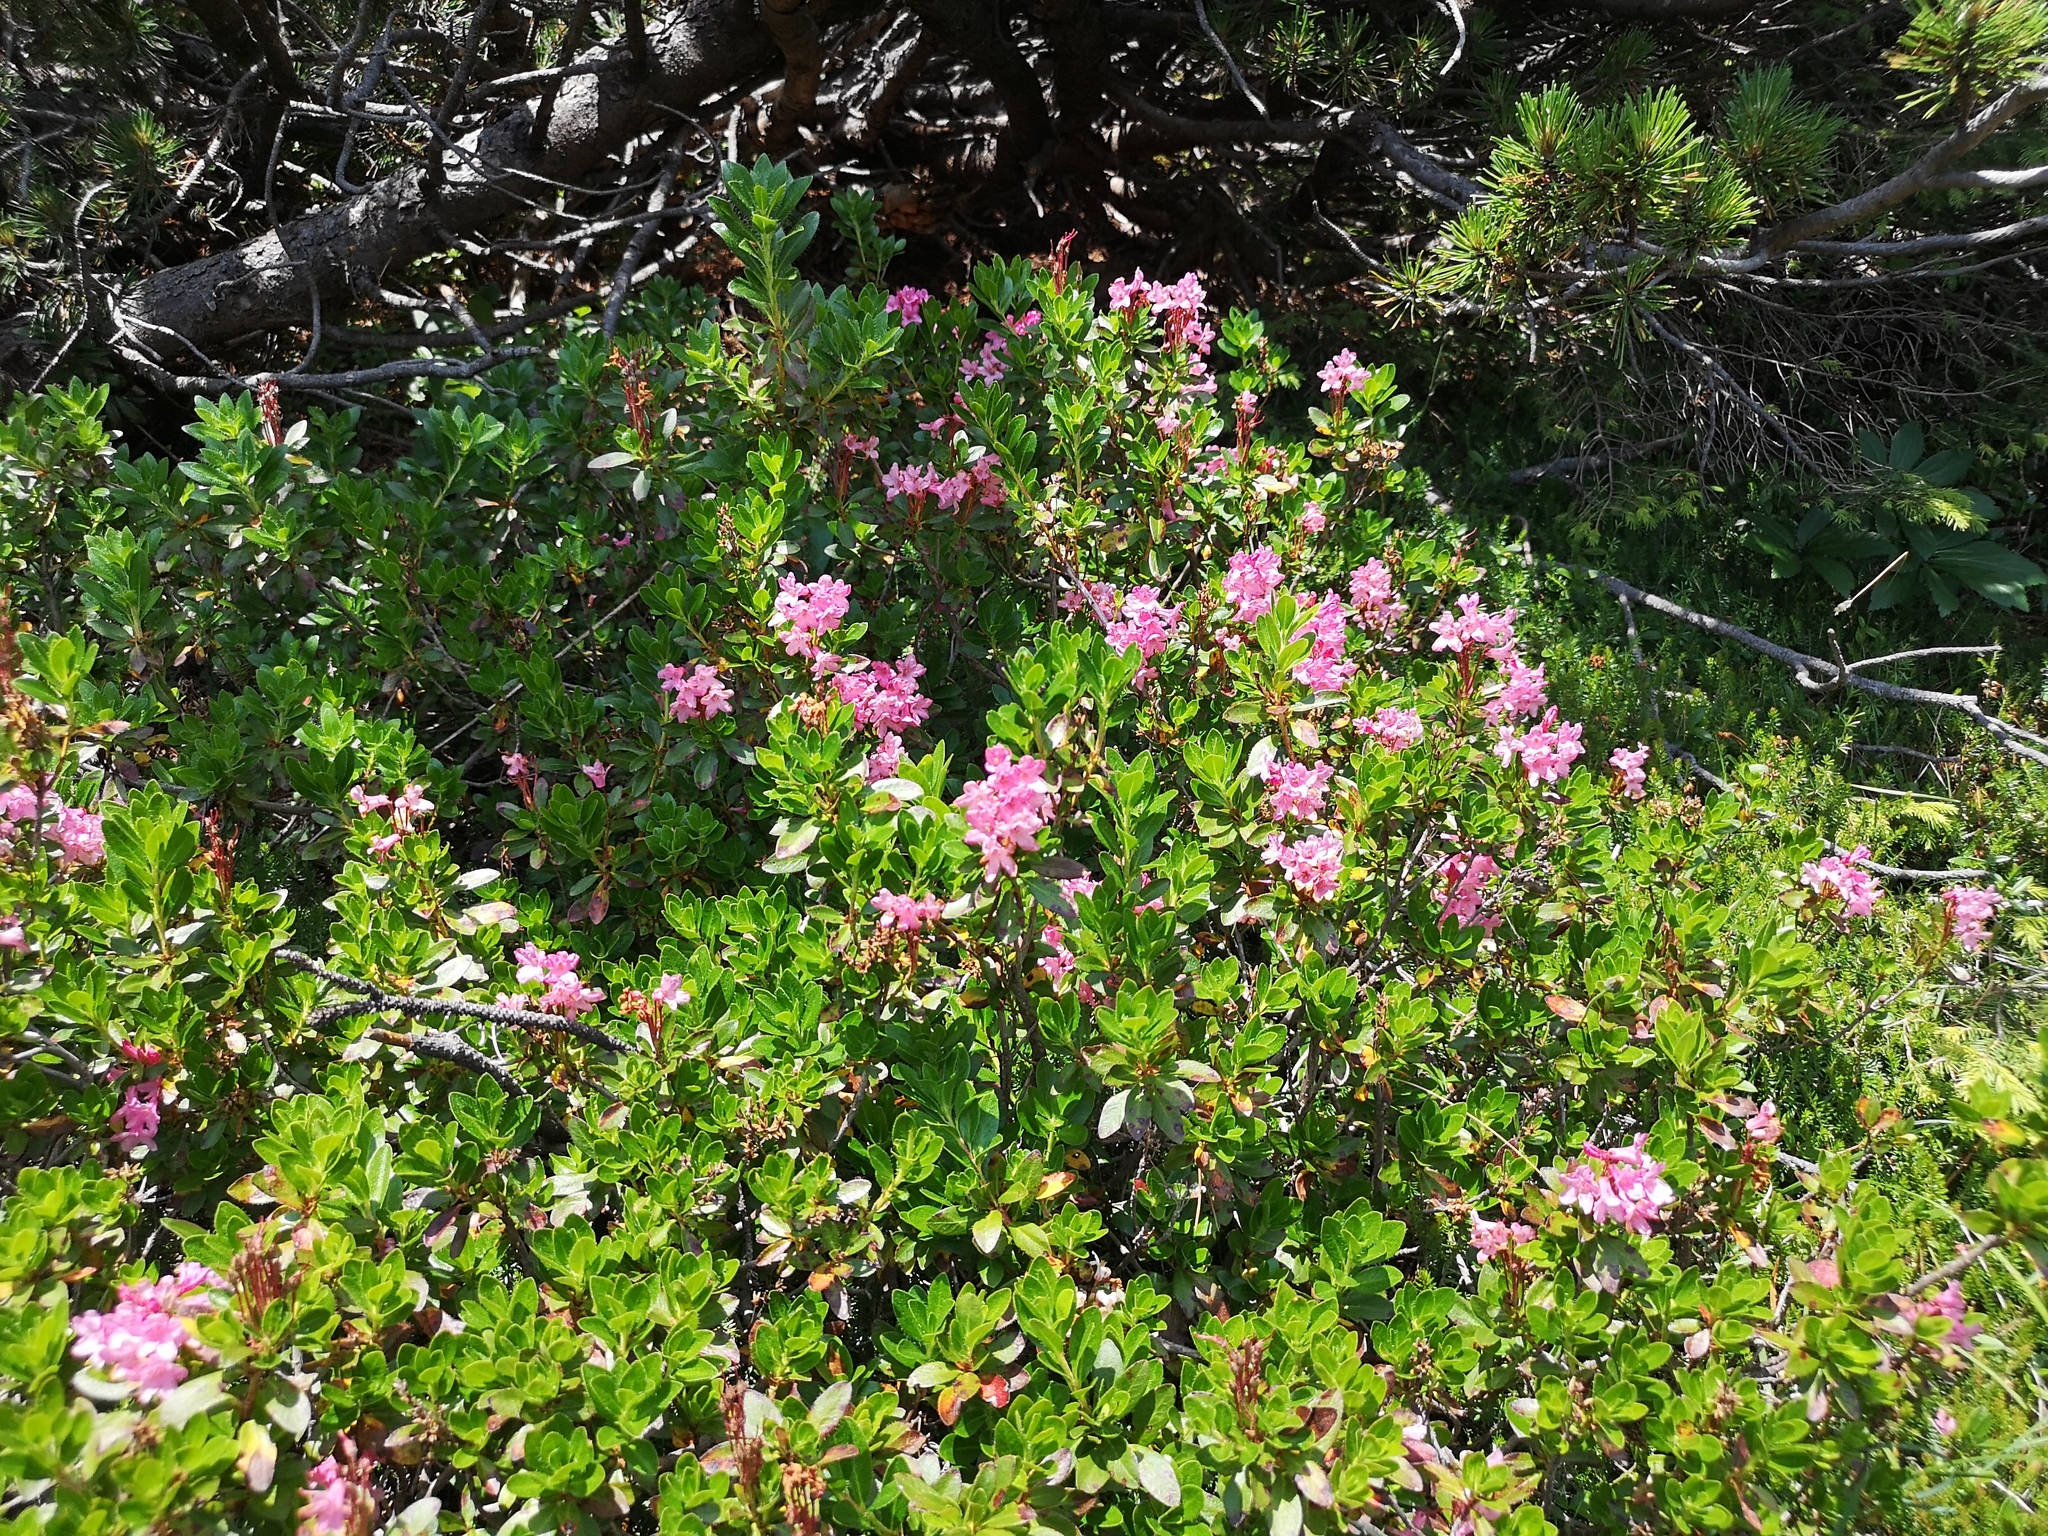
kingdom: Plantae
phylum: Tracheophyta
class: Magnoliopsida
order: Ericales
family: Ericaceae
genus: Rhododendron
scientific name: Rhododendron hirsutum
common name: Hairy alpenrose
